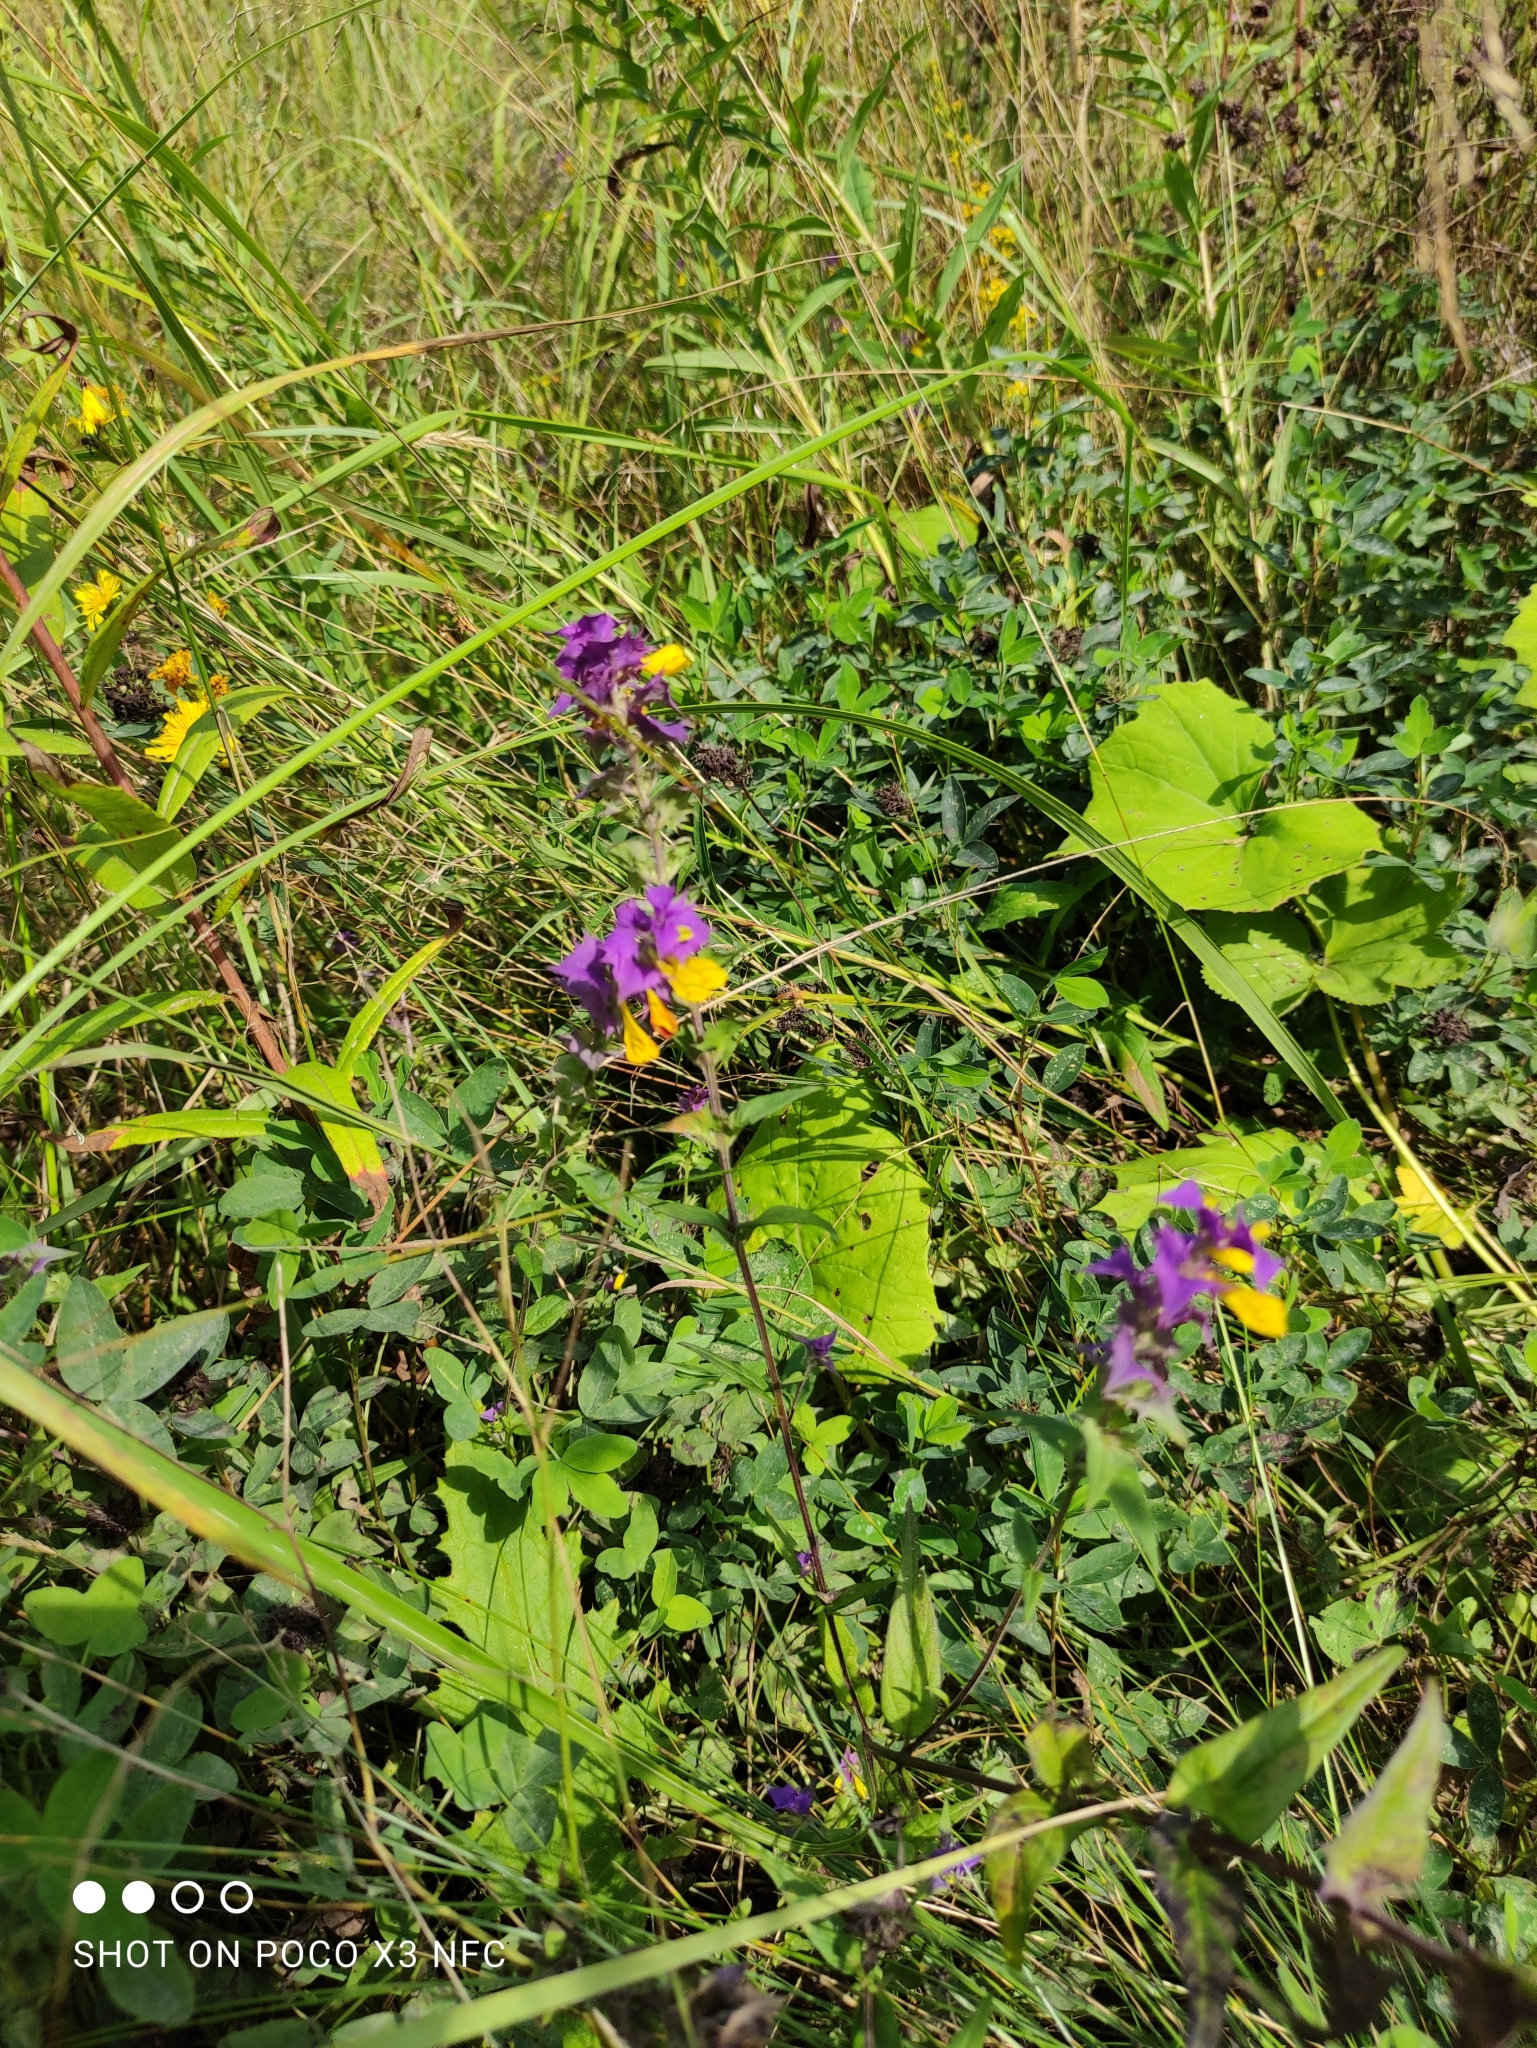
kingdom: Plantae
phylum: Tracheophyta
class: Magnoliopsida
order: Lamiales
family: Orobanchaceae
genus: Melampyrum
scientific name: Melampyrum nemorosum
